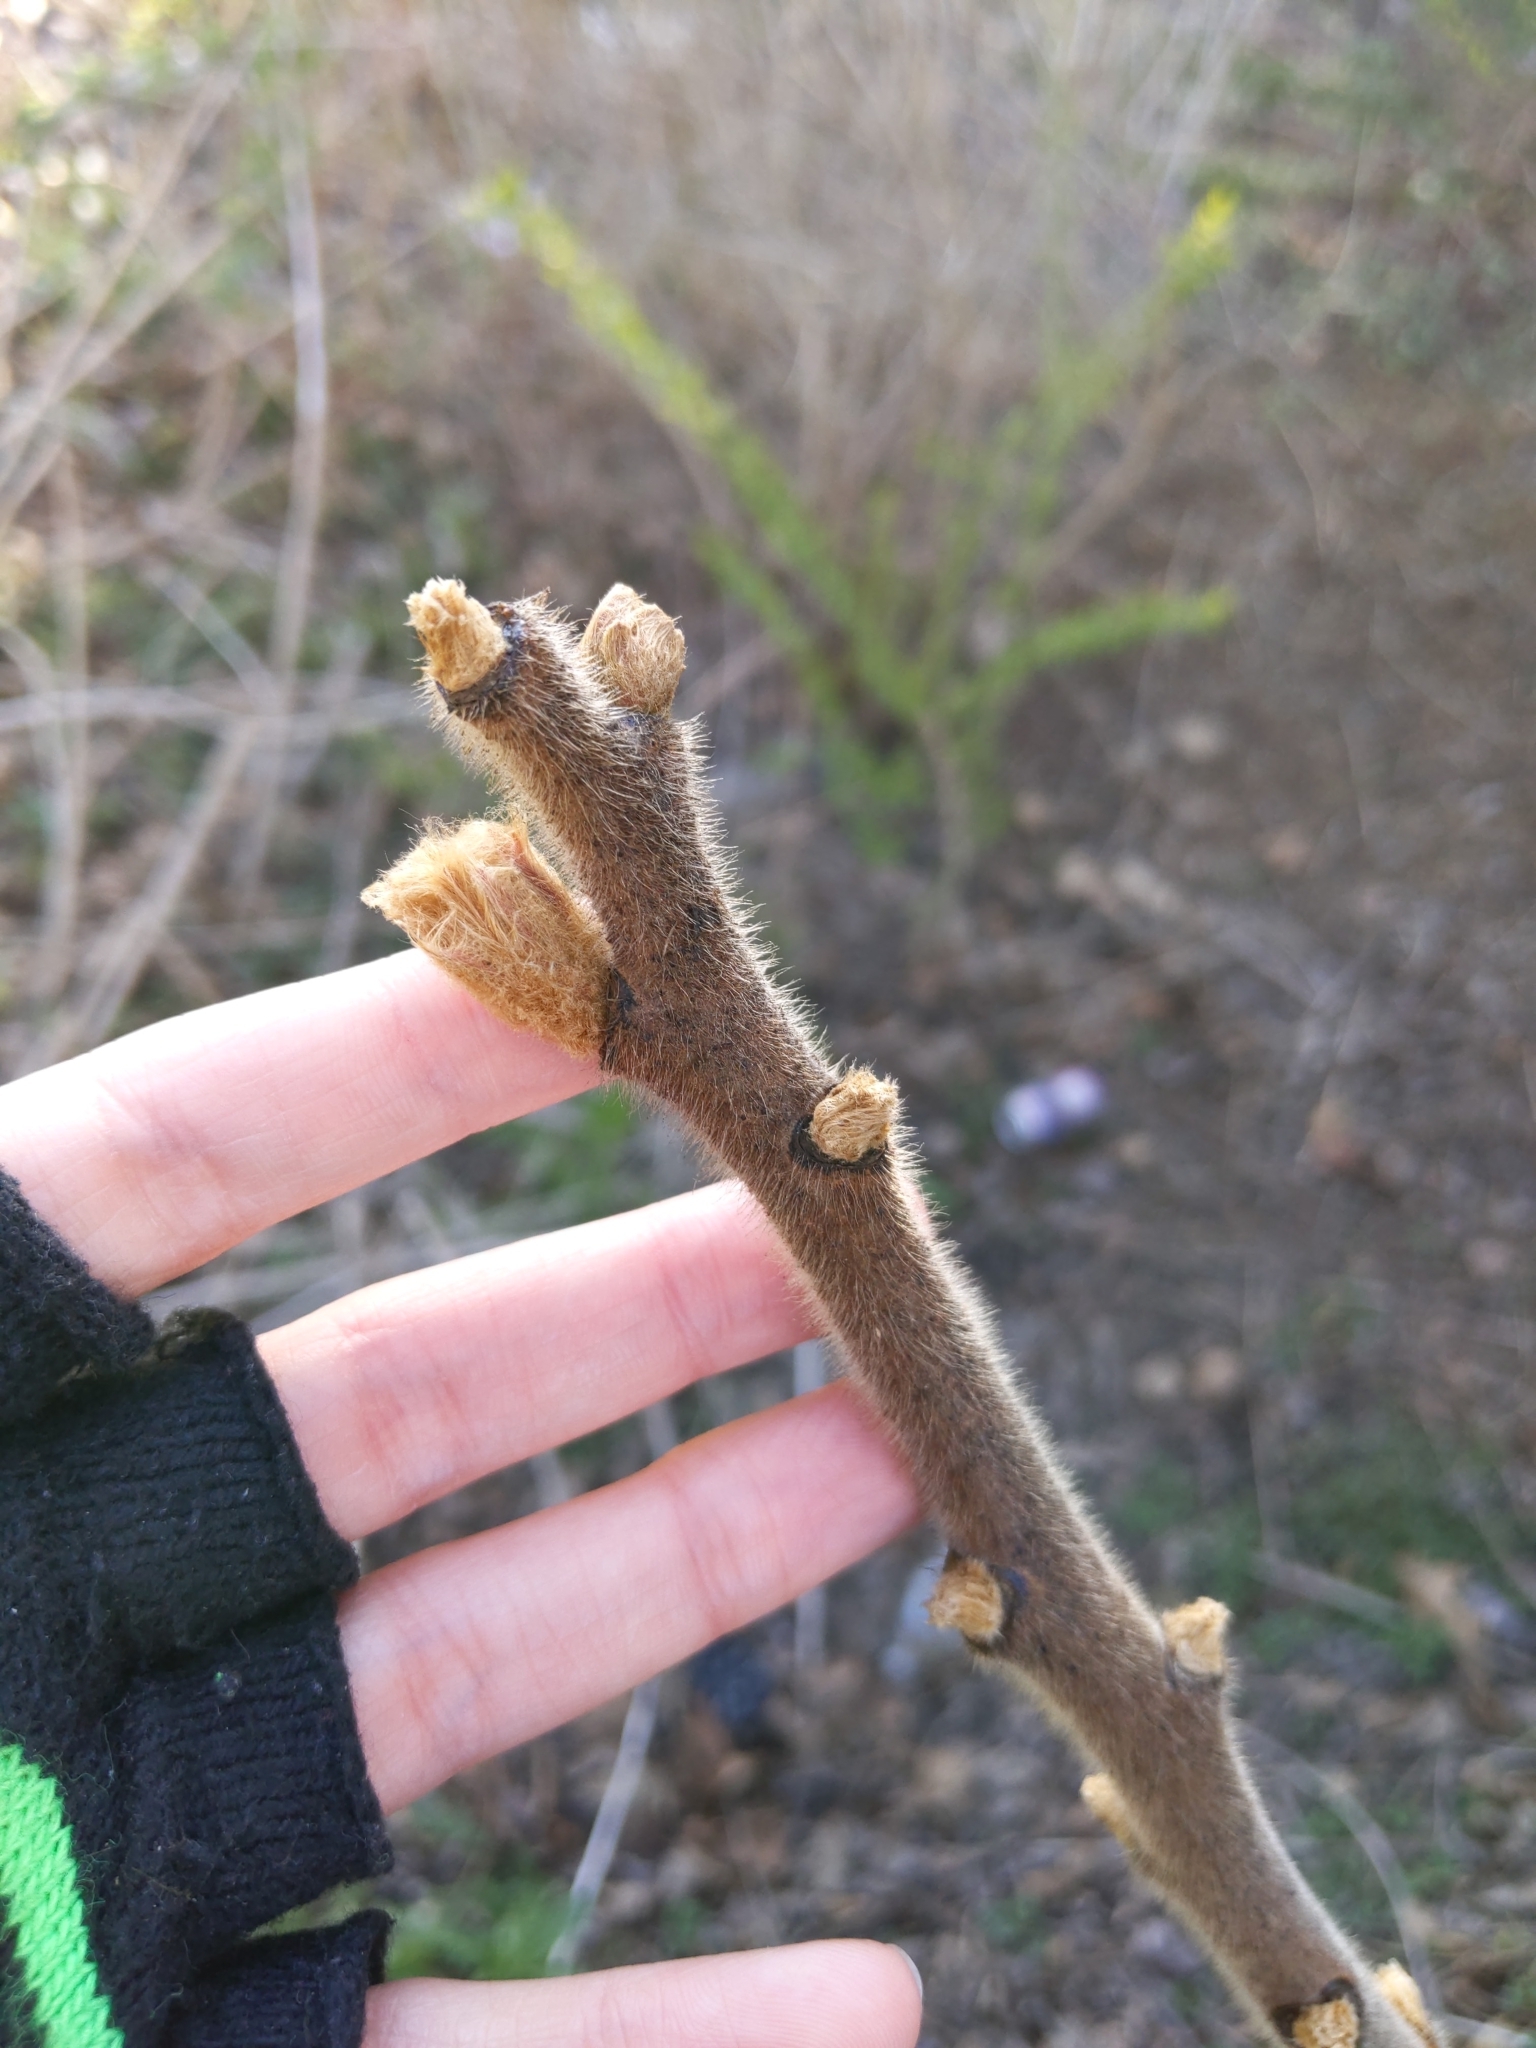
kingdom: Plantae
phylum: Tracheophyta
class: Magnoliopsida
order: Sapindales
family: Anacardiaceae
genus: Rhus
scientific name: Rhus typhina
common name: Staghorn sumac
